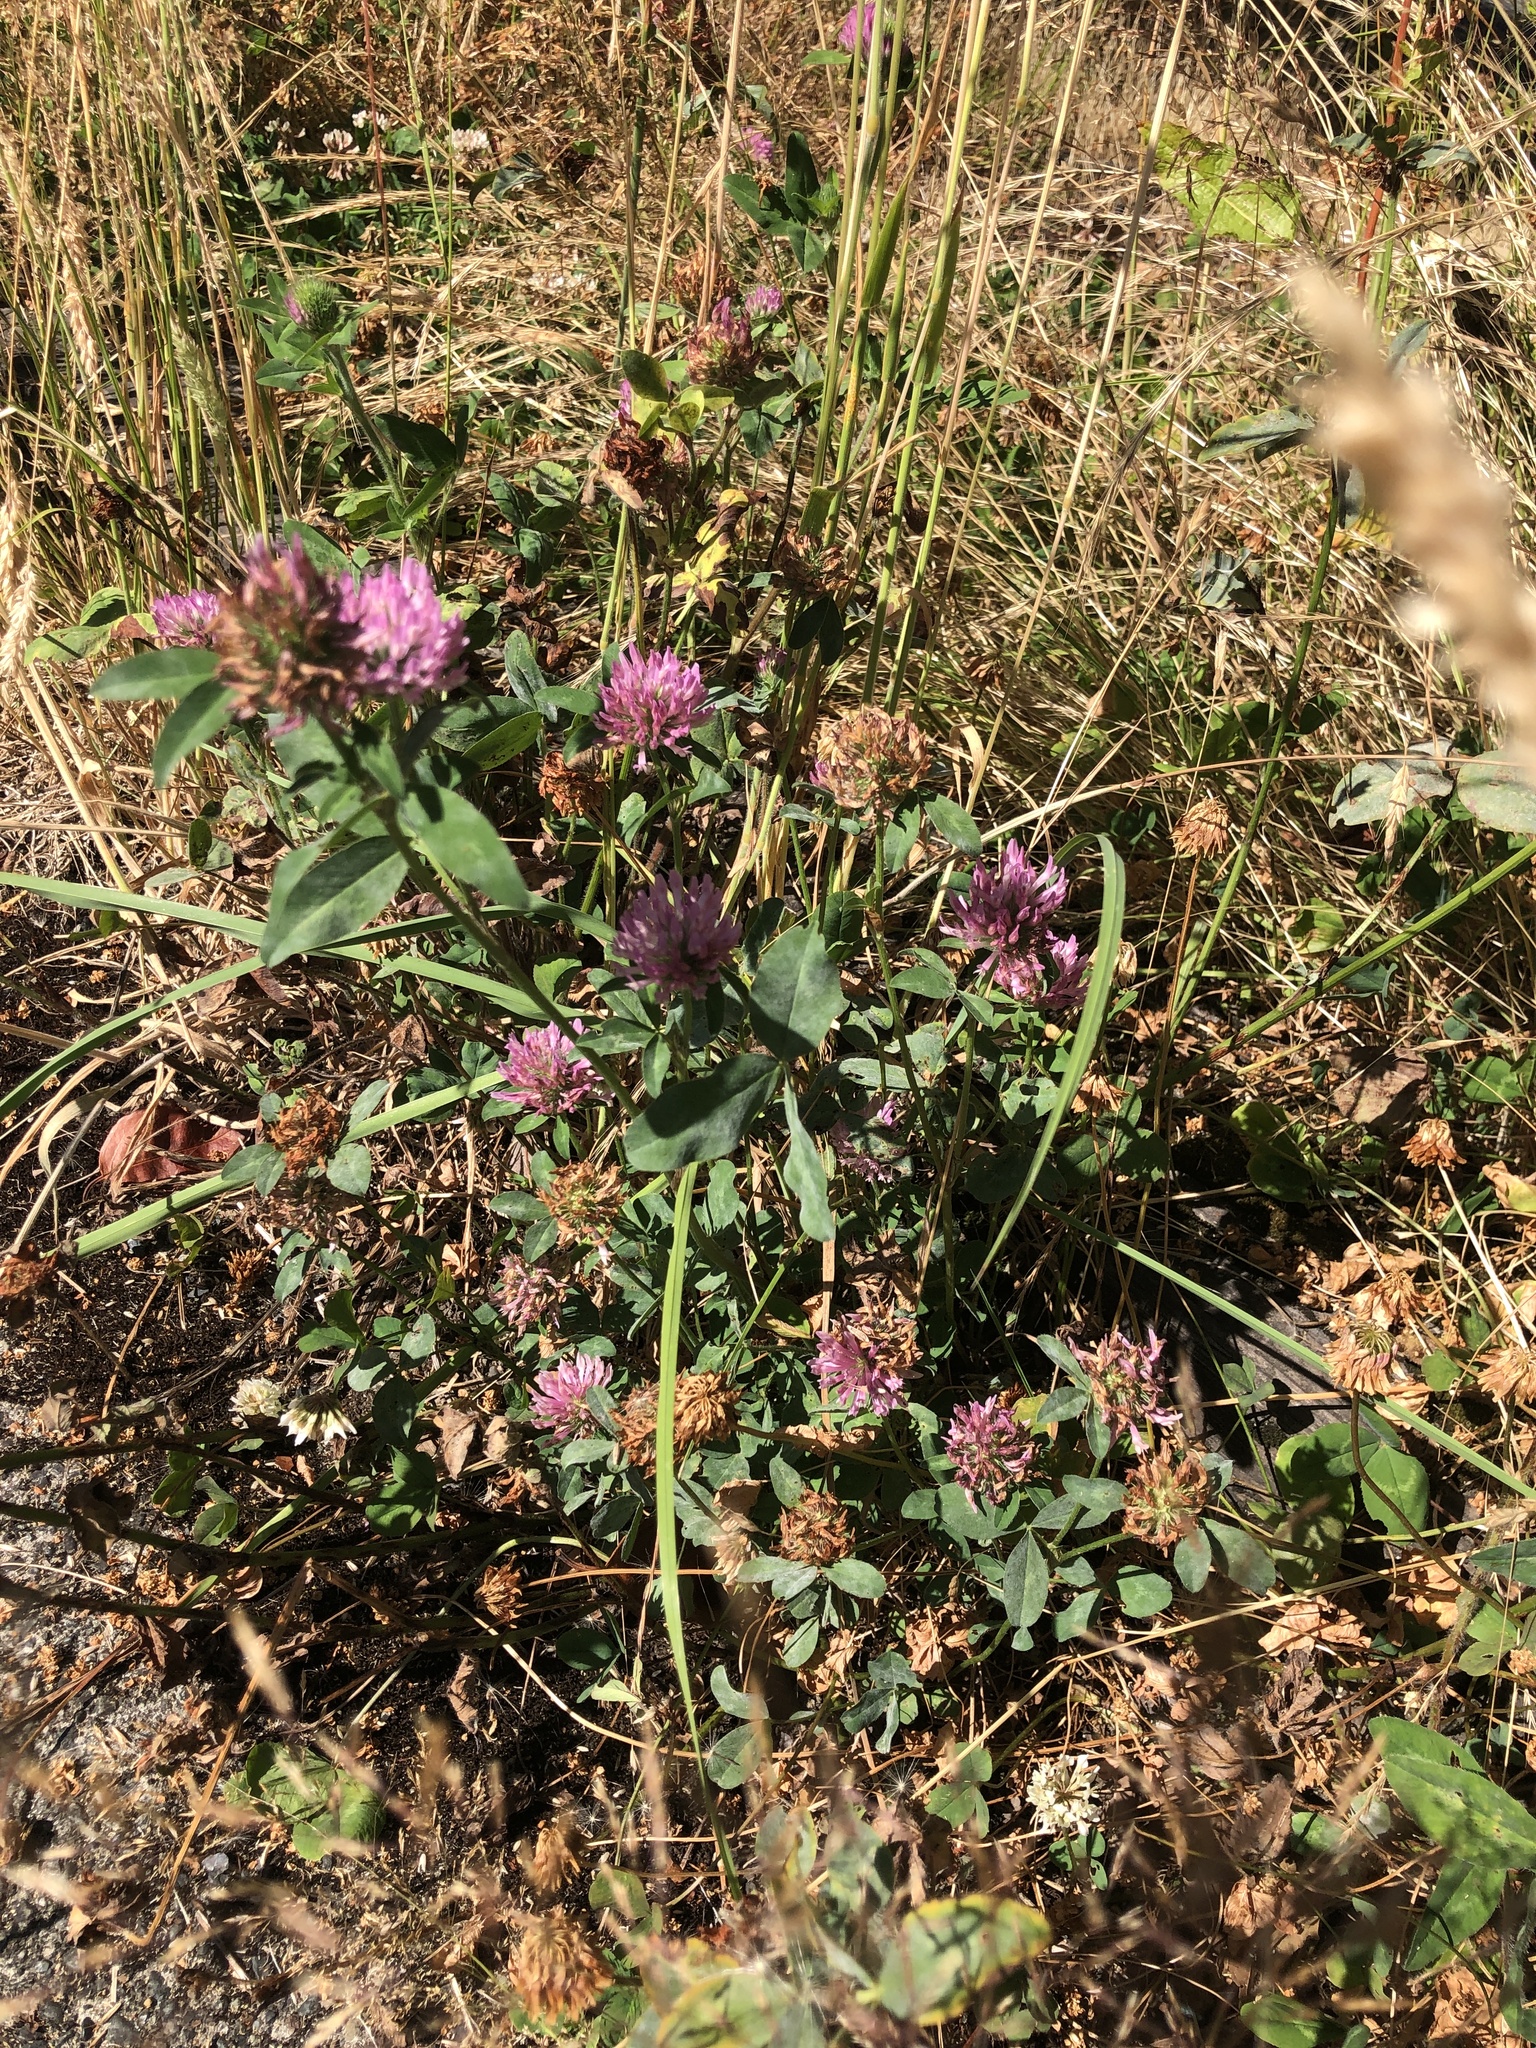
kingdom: Plantae
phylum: Tracheophyta
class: Magnoliopsida
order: Fabales
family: Fabaceae
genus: Trifolium
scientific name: Trifolium pratense
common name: Red clover
